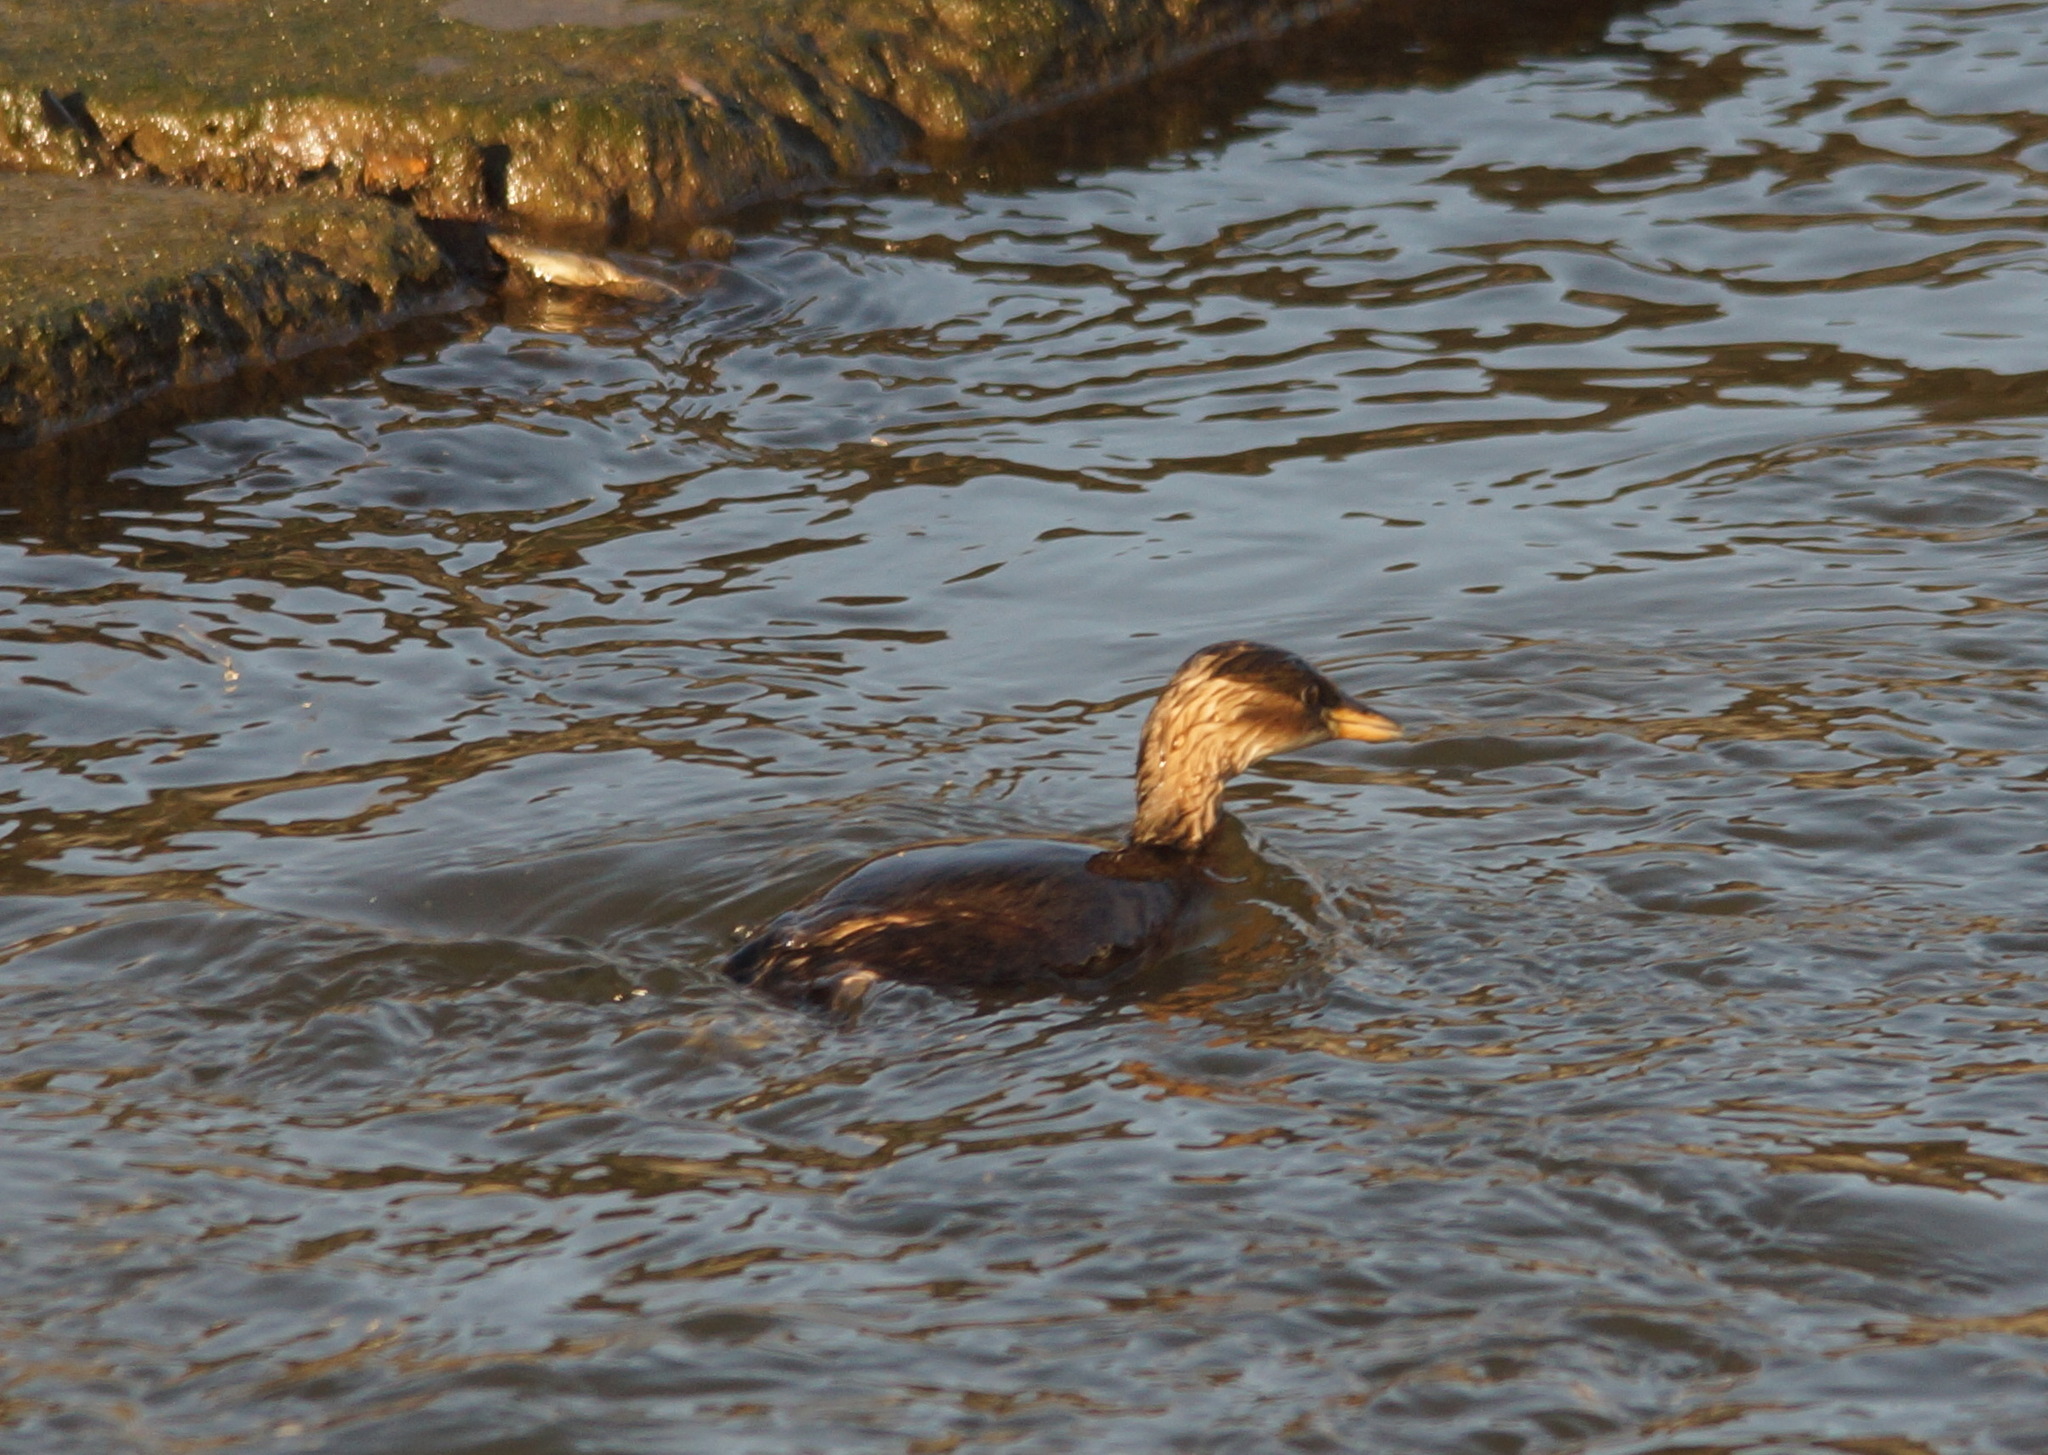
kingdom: Animalia
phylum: Chordata
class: Aves
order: Podicipediformes
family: Podicipedidae
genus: Tachybaptus
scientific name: Tachybaptus ruficollis
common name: Little grebe
